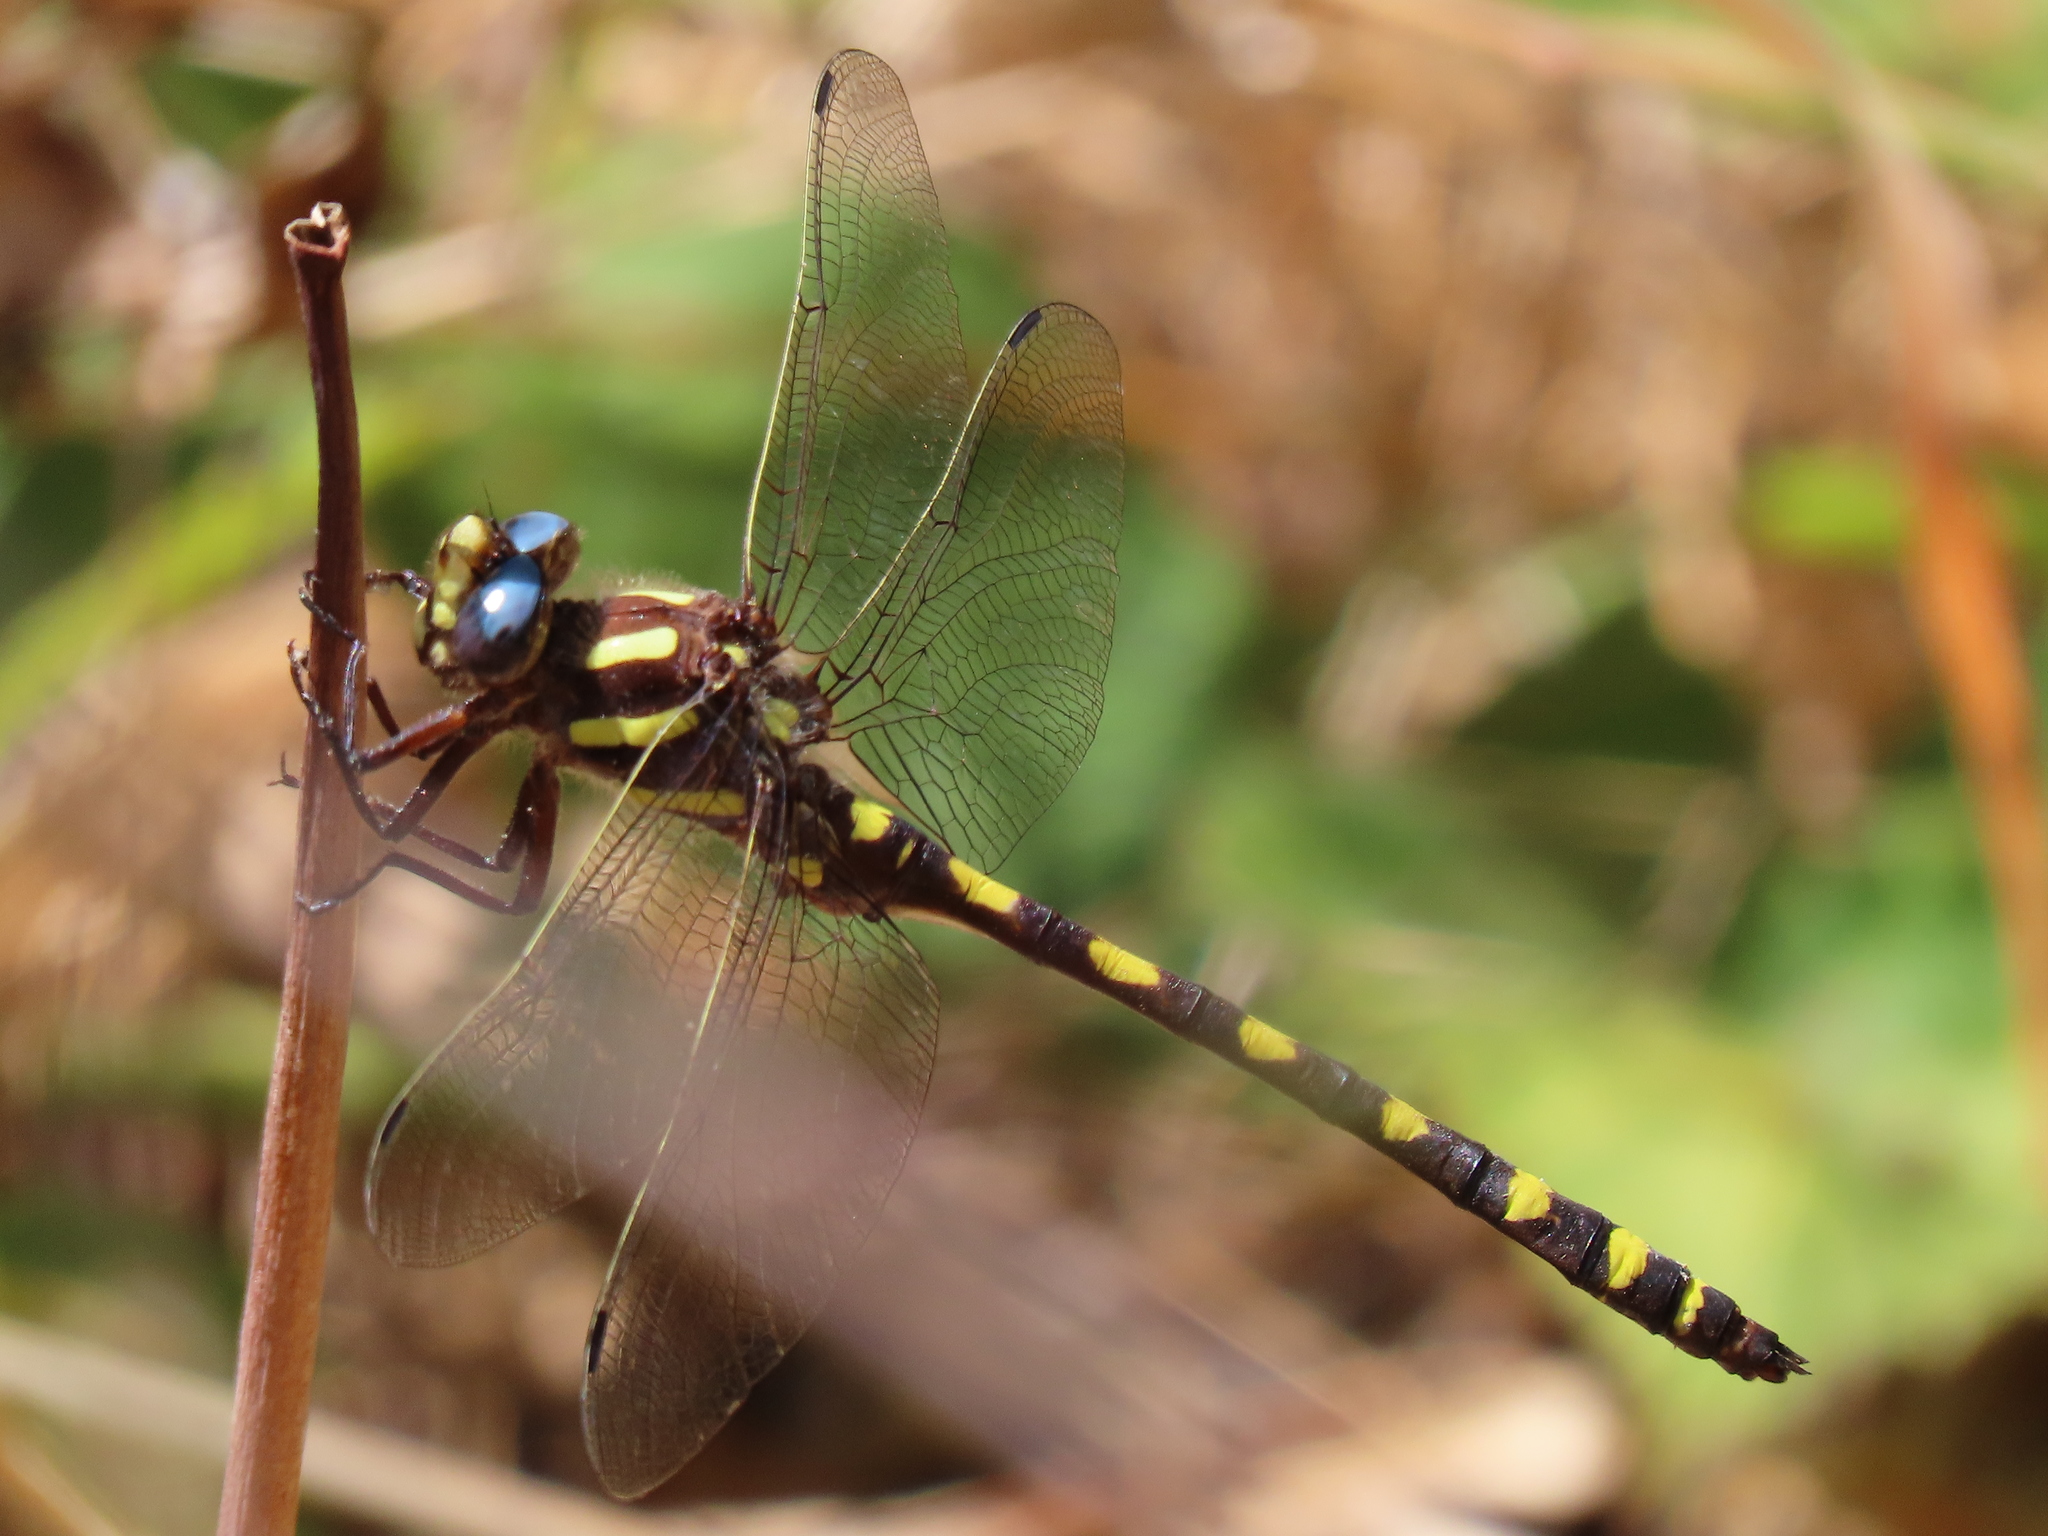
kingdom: Animalia
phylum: Arthropoda
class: Insecta
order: Odonata
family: Cordulegastridae
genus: Cordulegaster
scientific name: Cordulegaster dorsalis
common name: Pacific spiketail
